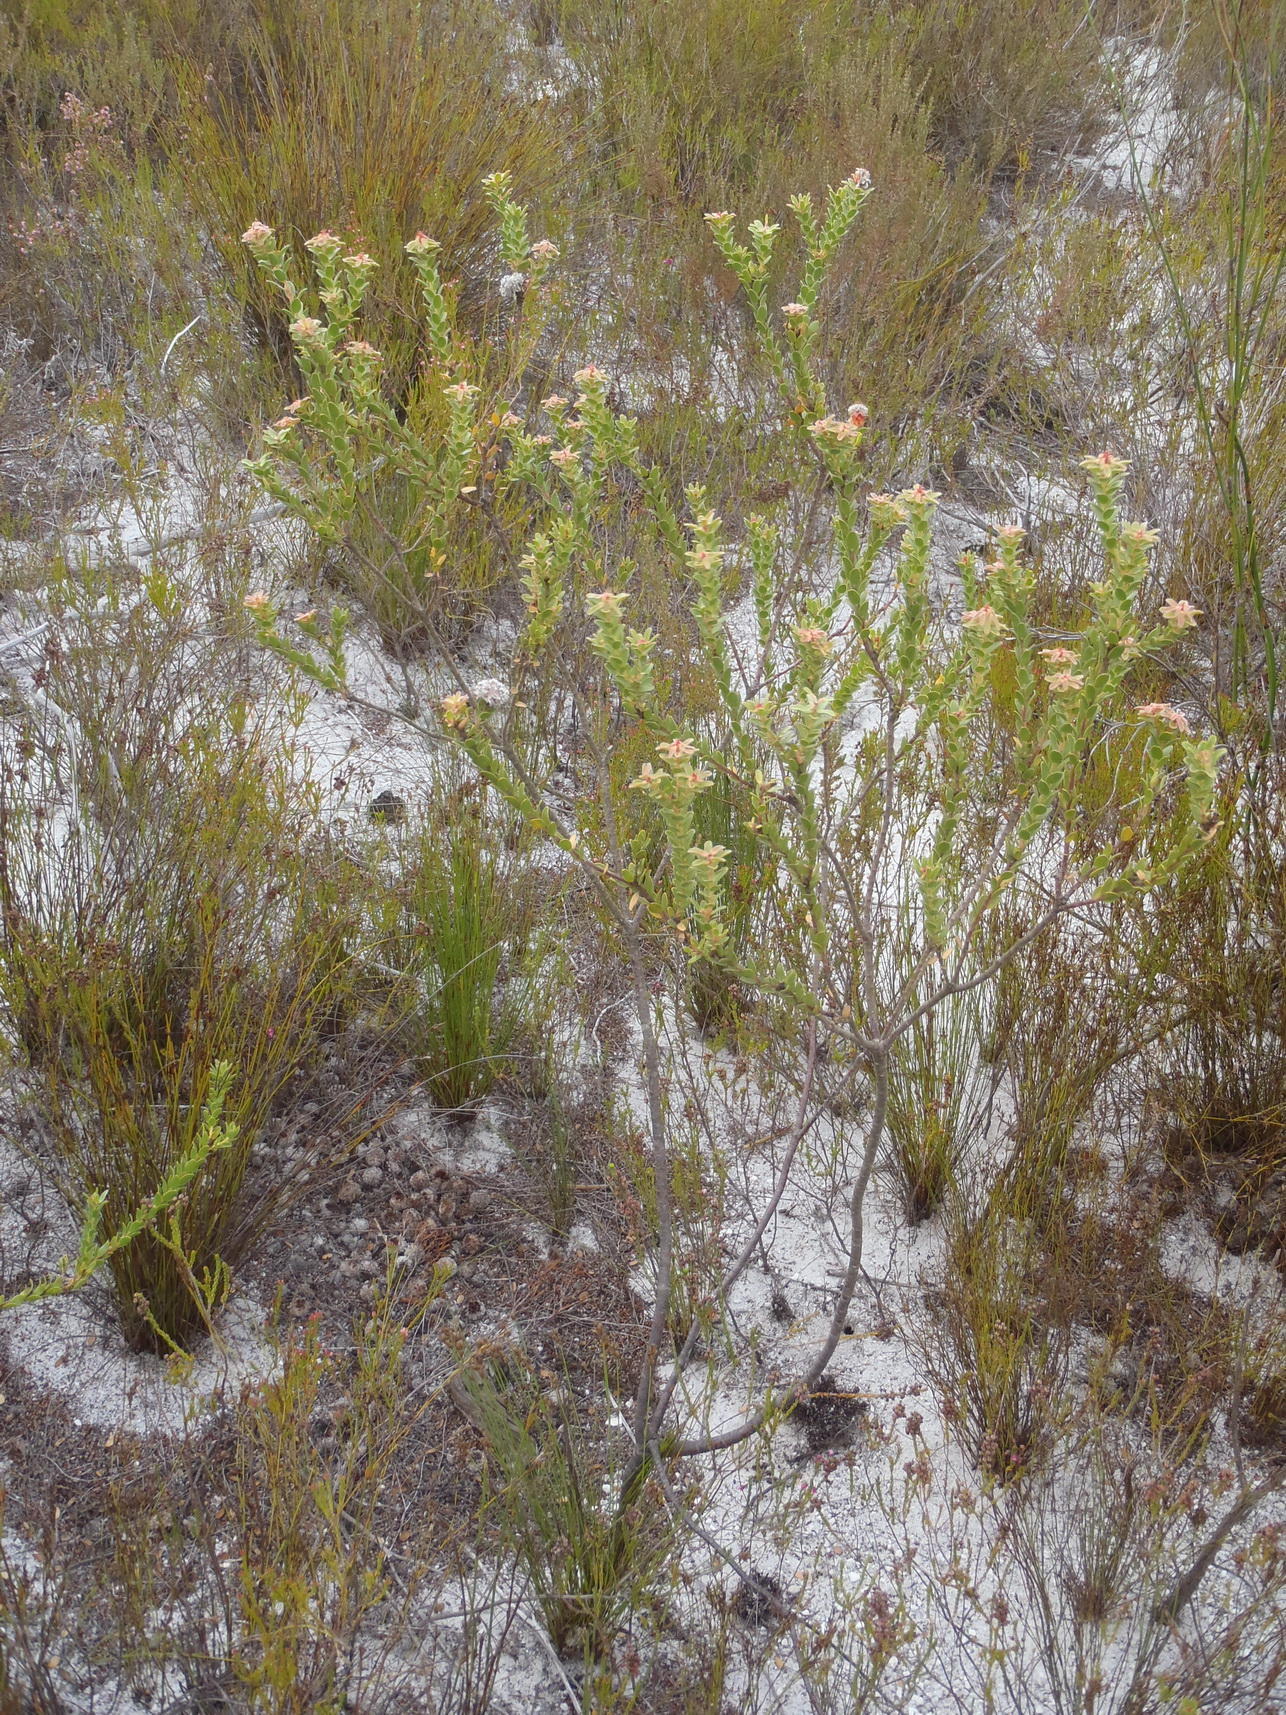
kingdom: Plantae
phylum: Tracheophyta
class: Magnoliopsida
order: Proteales
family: Proteaceae
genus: Diastella
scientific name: Diastella thymelaeoides
